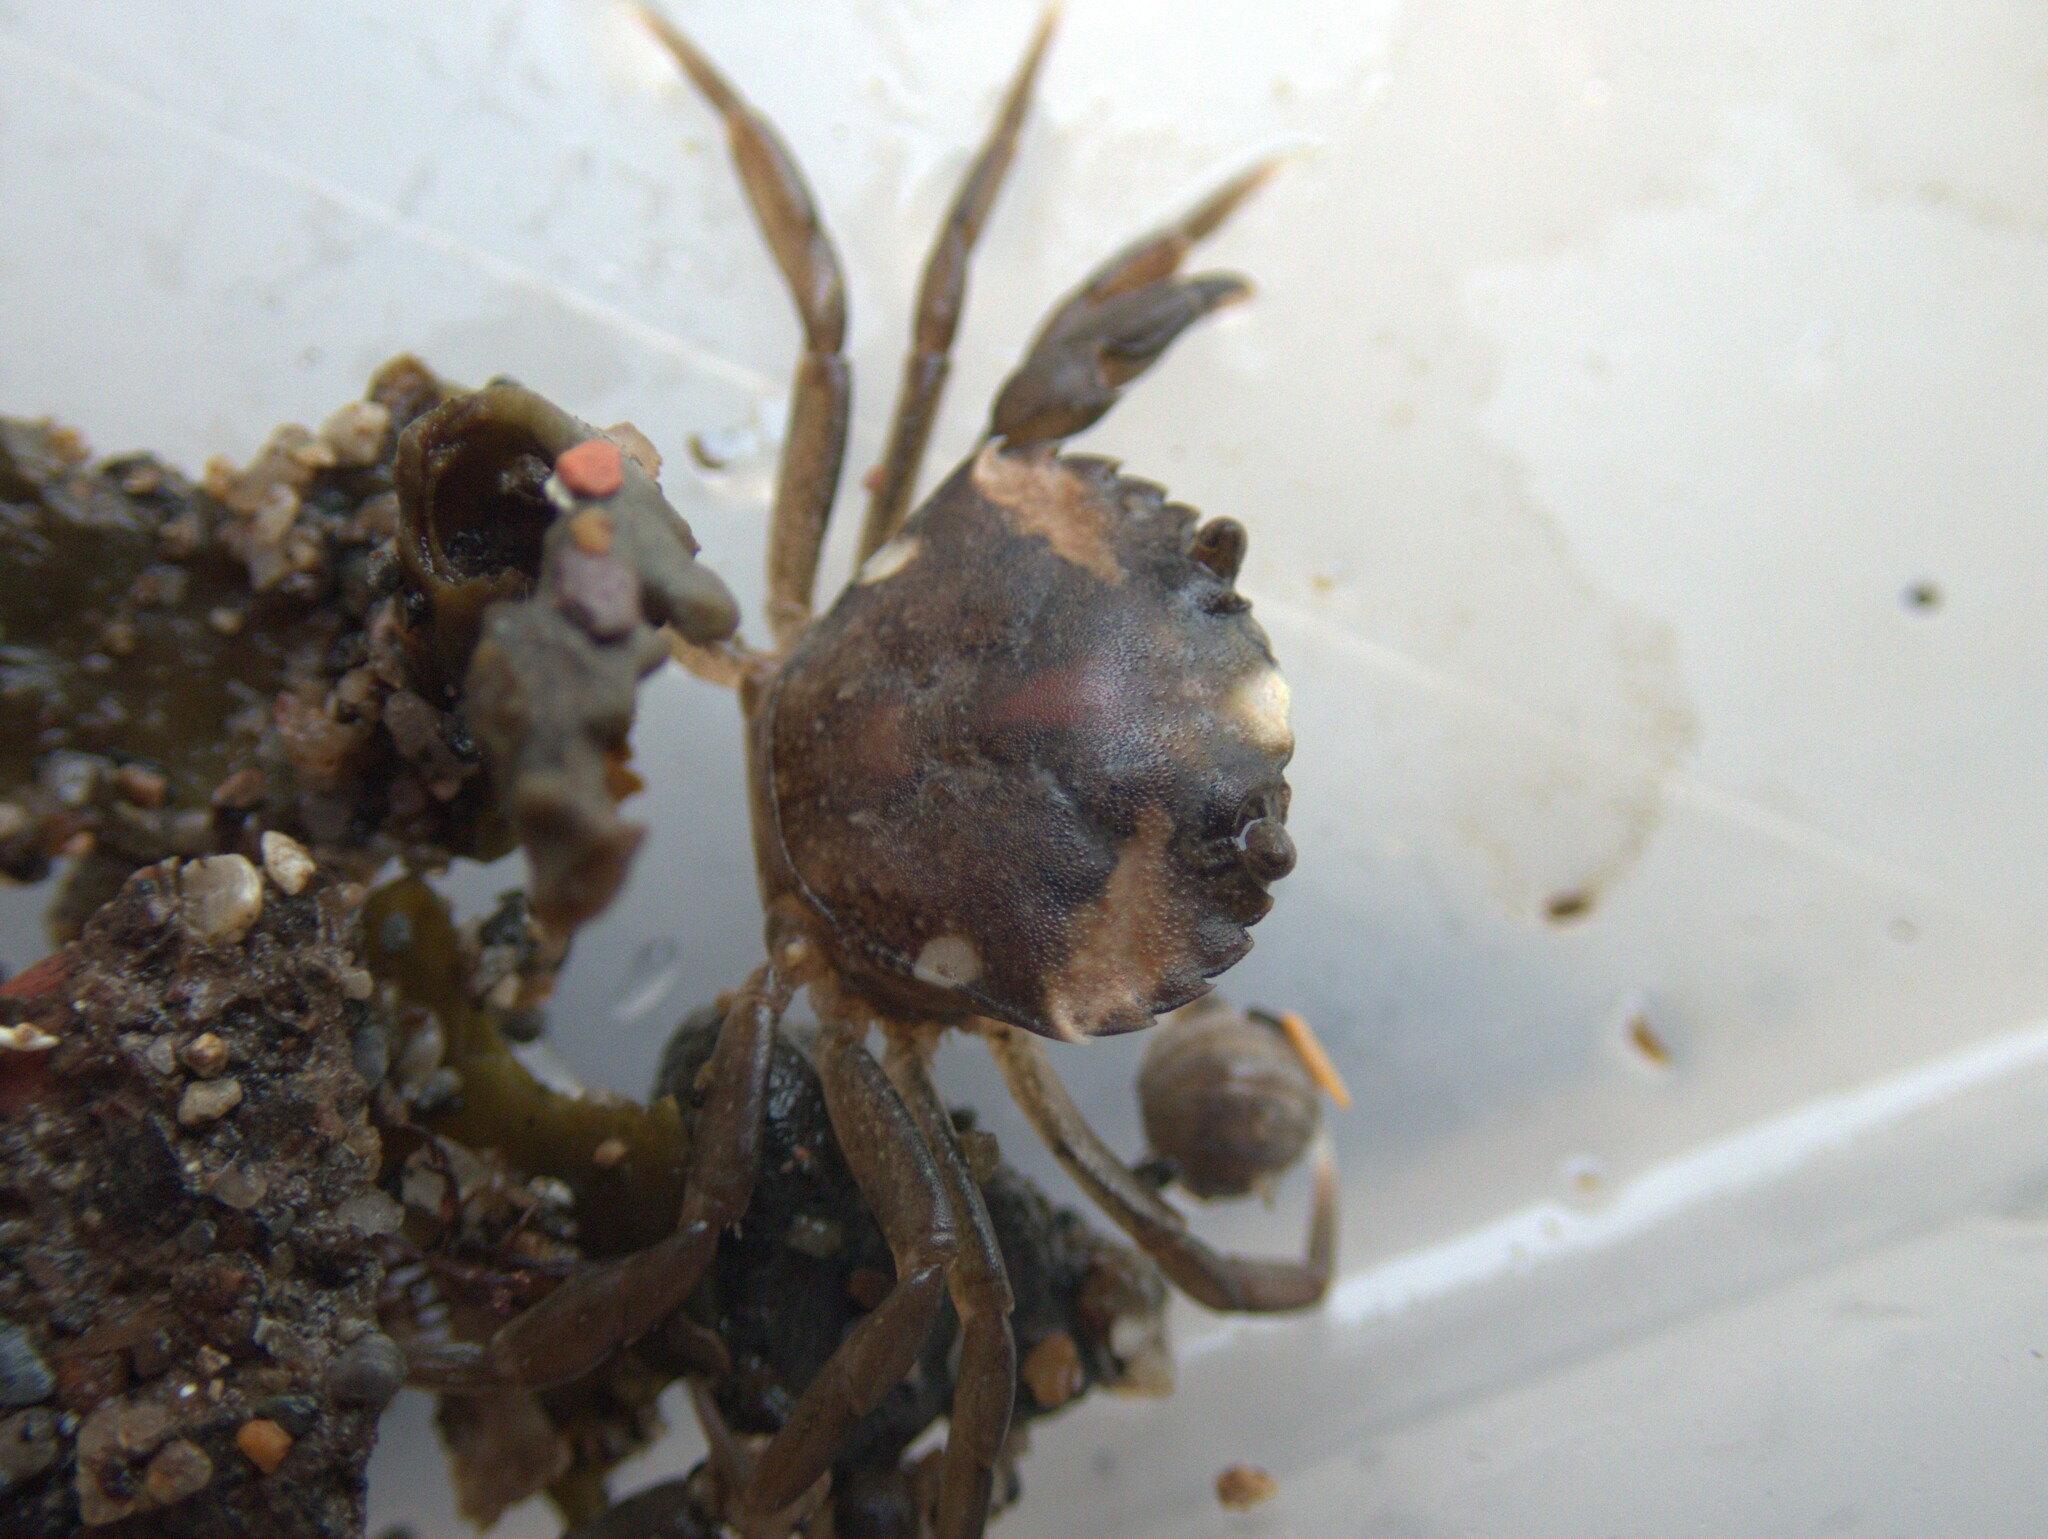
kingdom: Animalia
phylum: Arthropoda
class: Malacostraca
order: Decapoda
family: Carcinidae
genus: Carcinus
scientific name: Carcinus maenas
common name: European green crab
